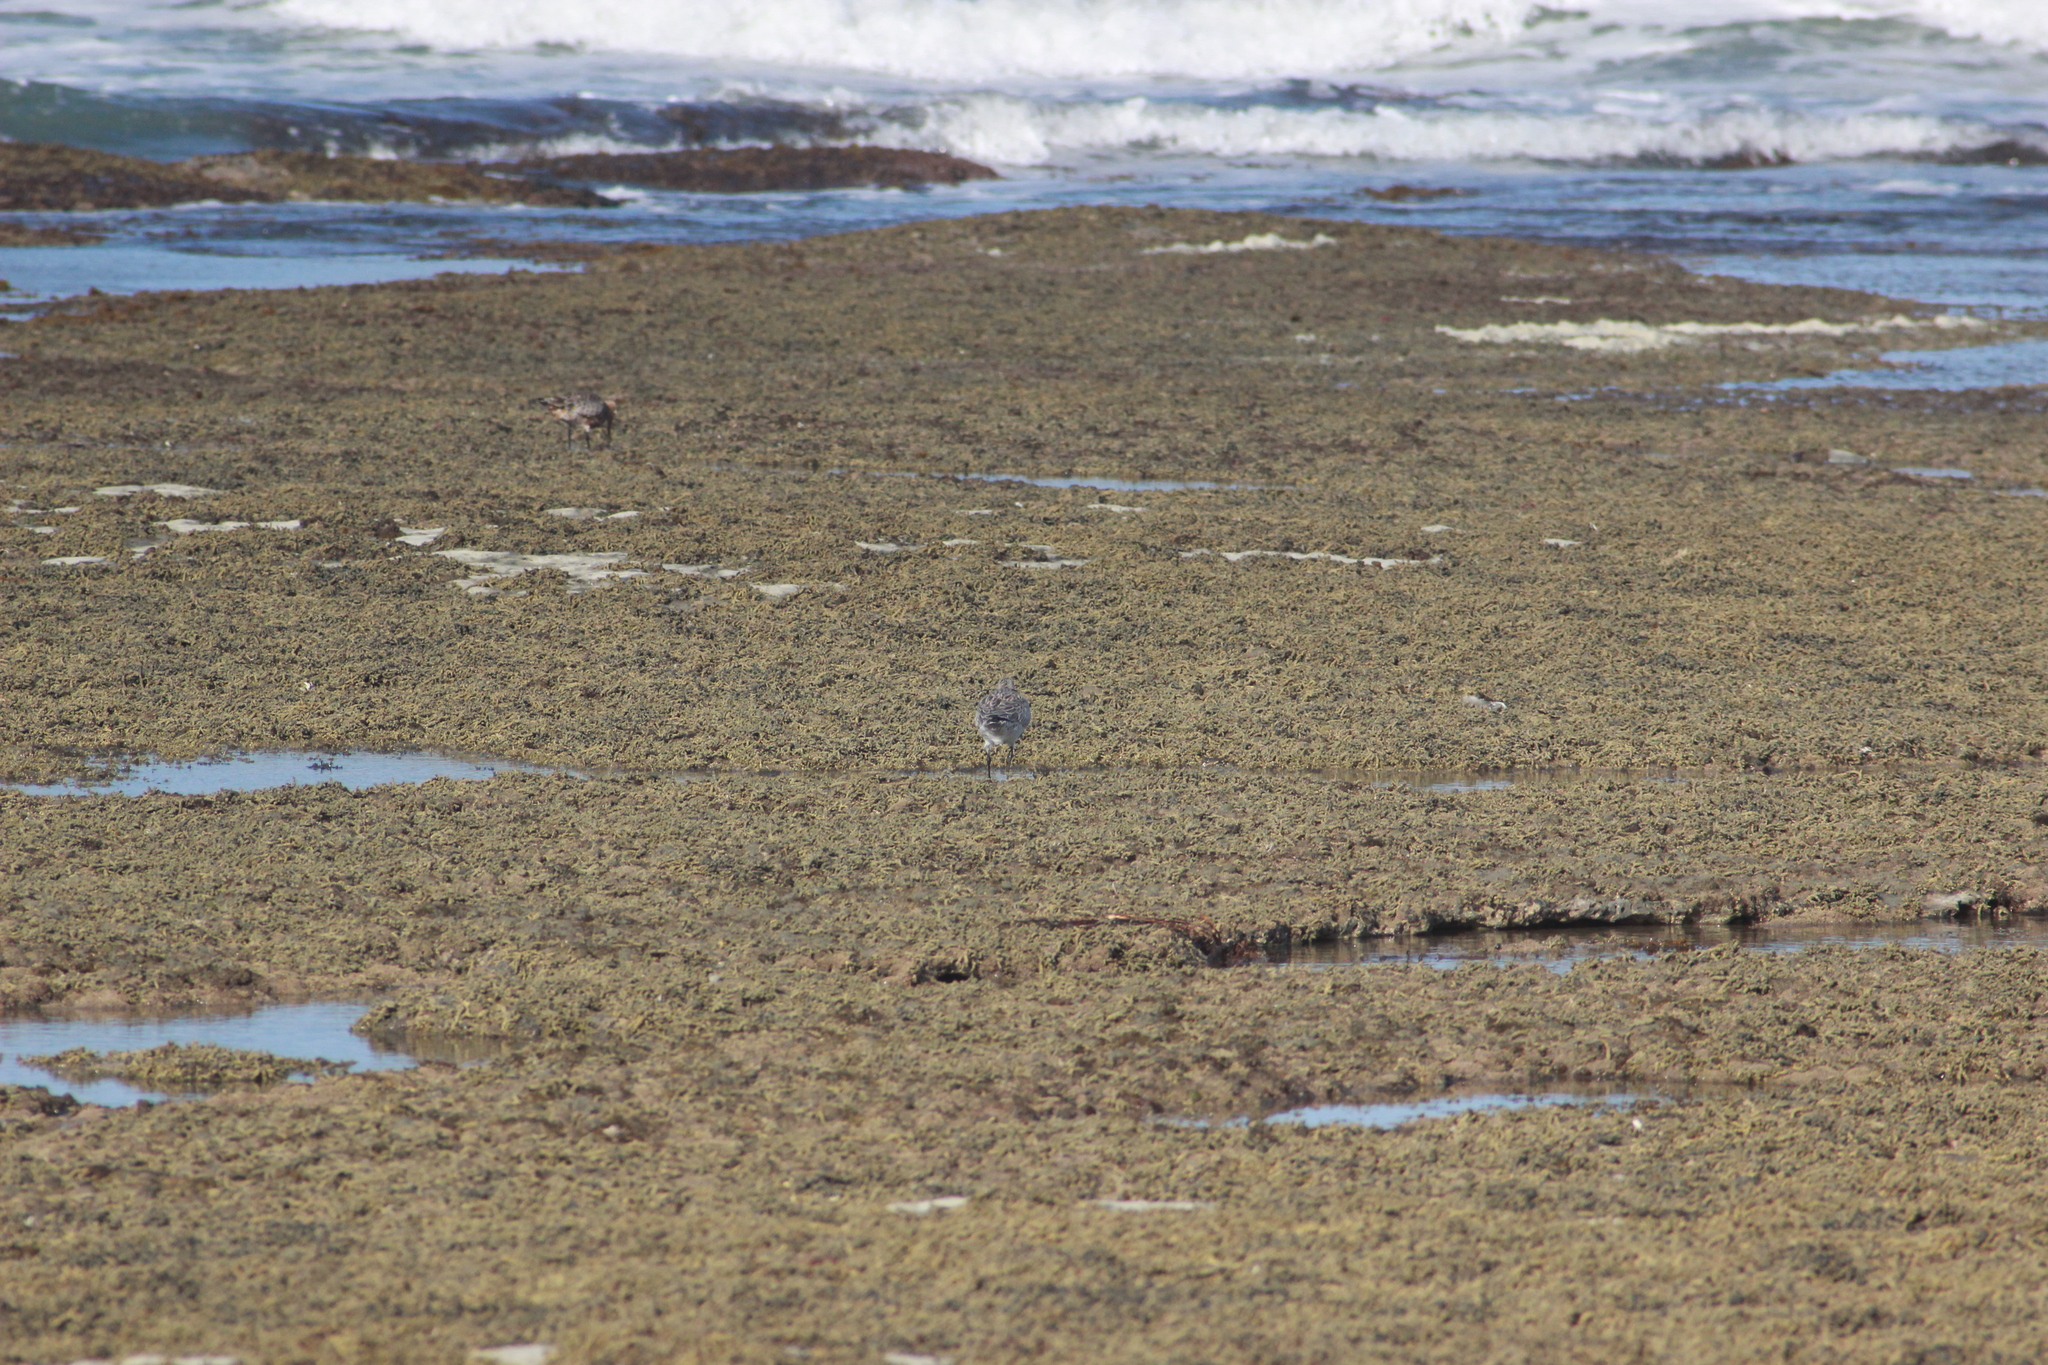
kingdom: Animalia
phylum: Chordata
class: Aves
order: Charadriiformes
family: Scolopacidae
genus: Limosa
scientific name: Limosa lapponica
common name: Bar-tailed godwit
